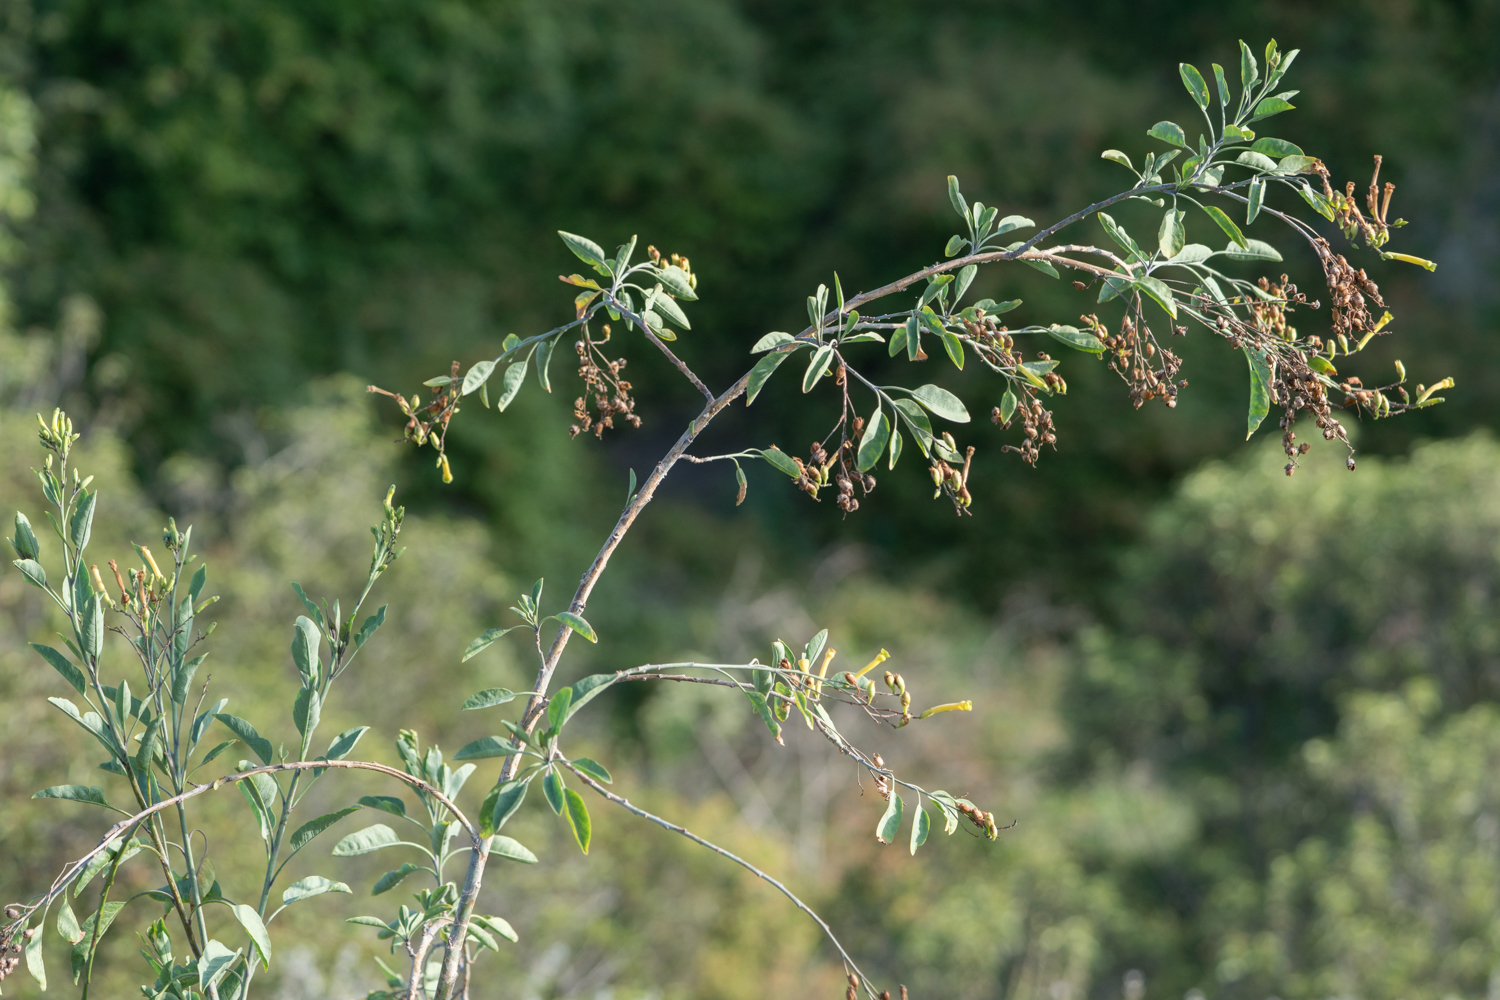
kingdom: Plantae
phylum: Tracheophyta
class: Magnoliopsida
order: Solanales
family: Solanaceae
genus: Nicotiana
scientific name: Nicotiana glauca
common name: Tree tobacco
